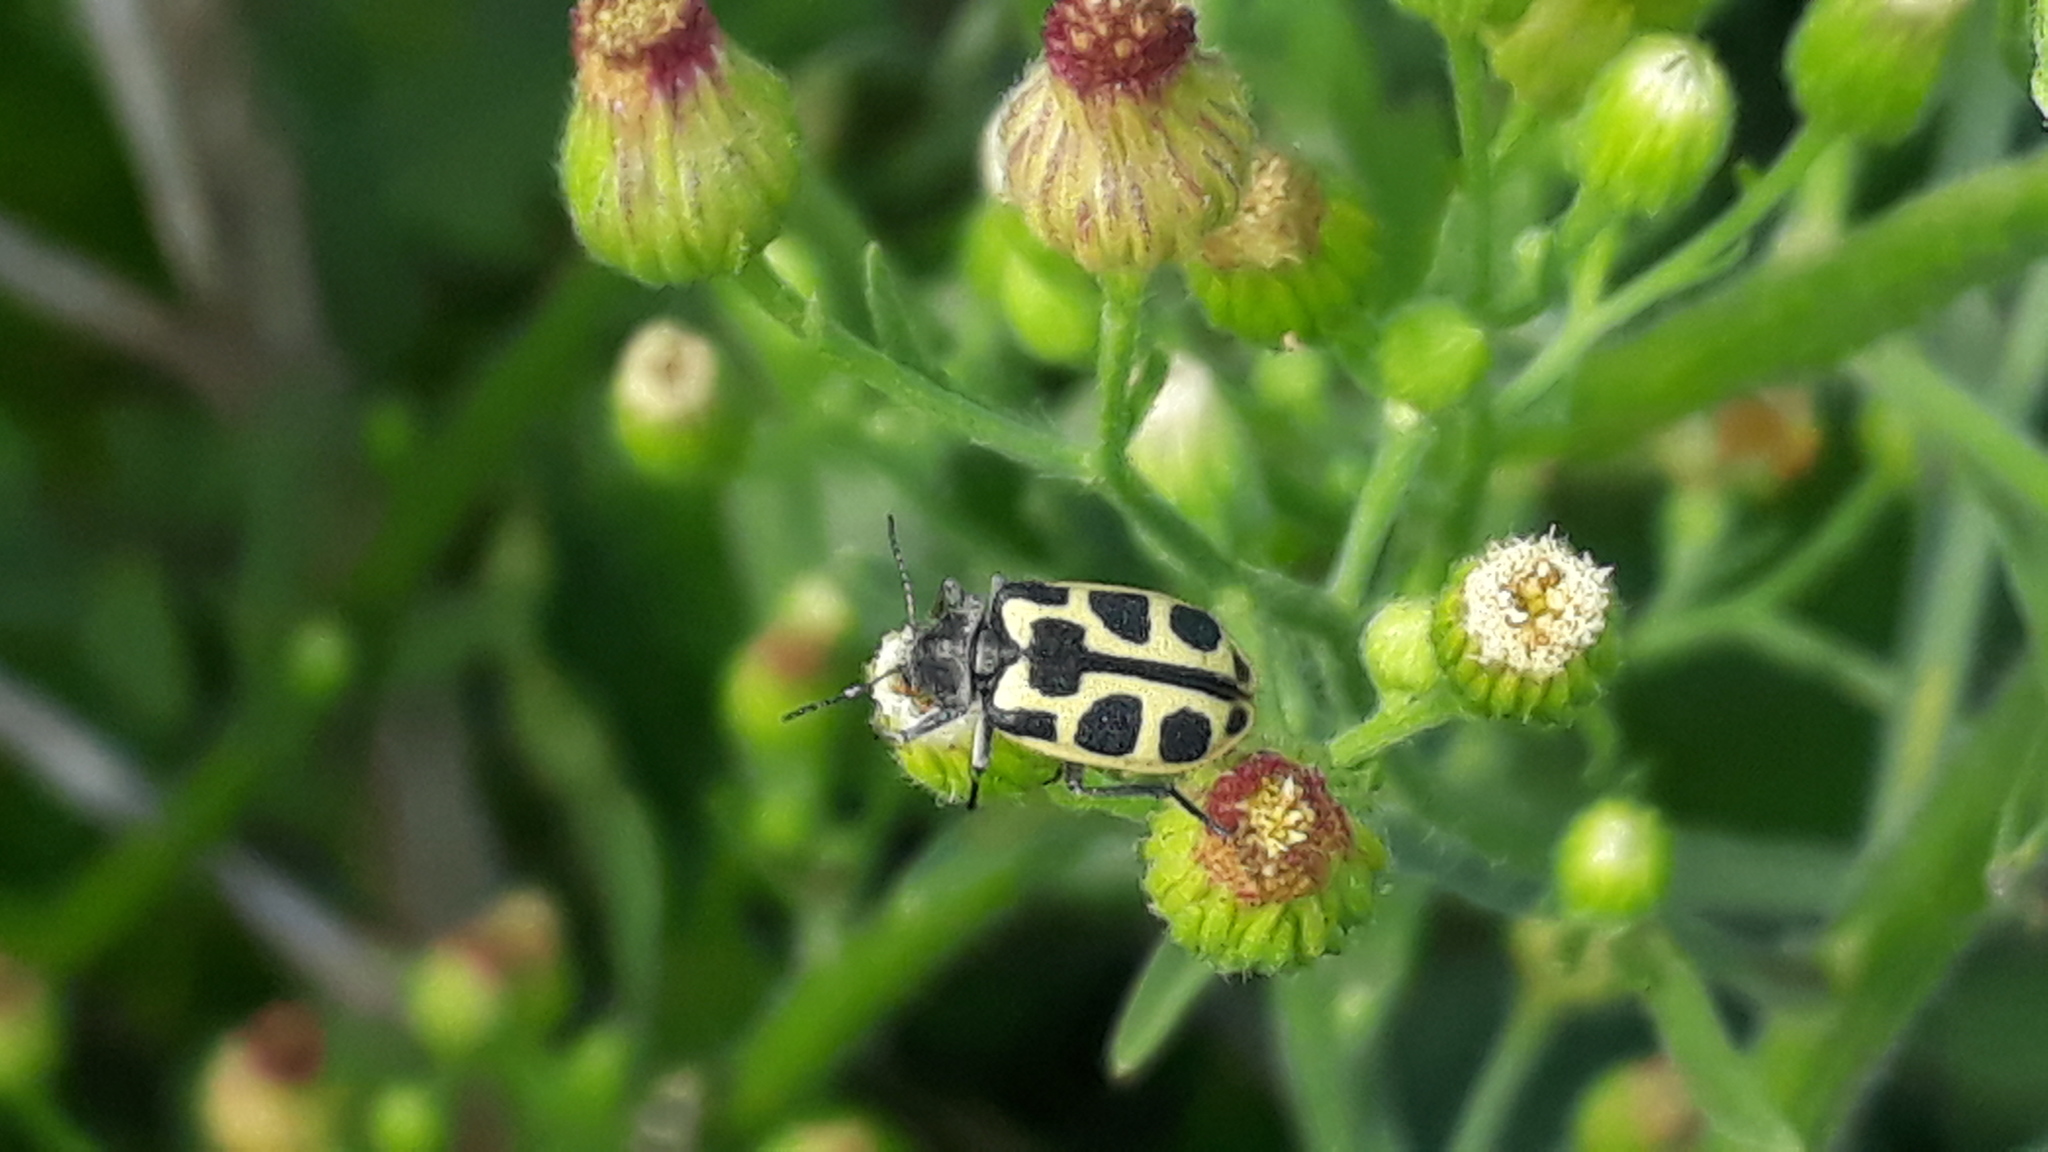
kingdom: Animalia
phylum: Arthropoda
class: Insecta
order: Coleoptera
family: Melyridae
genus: Astylus
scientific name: Astylus
